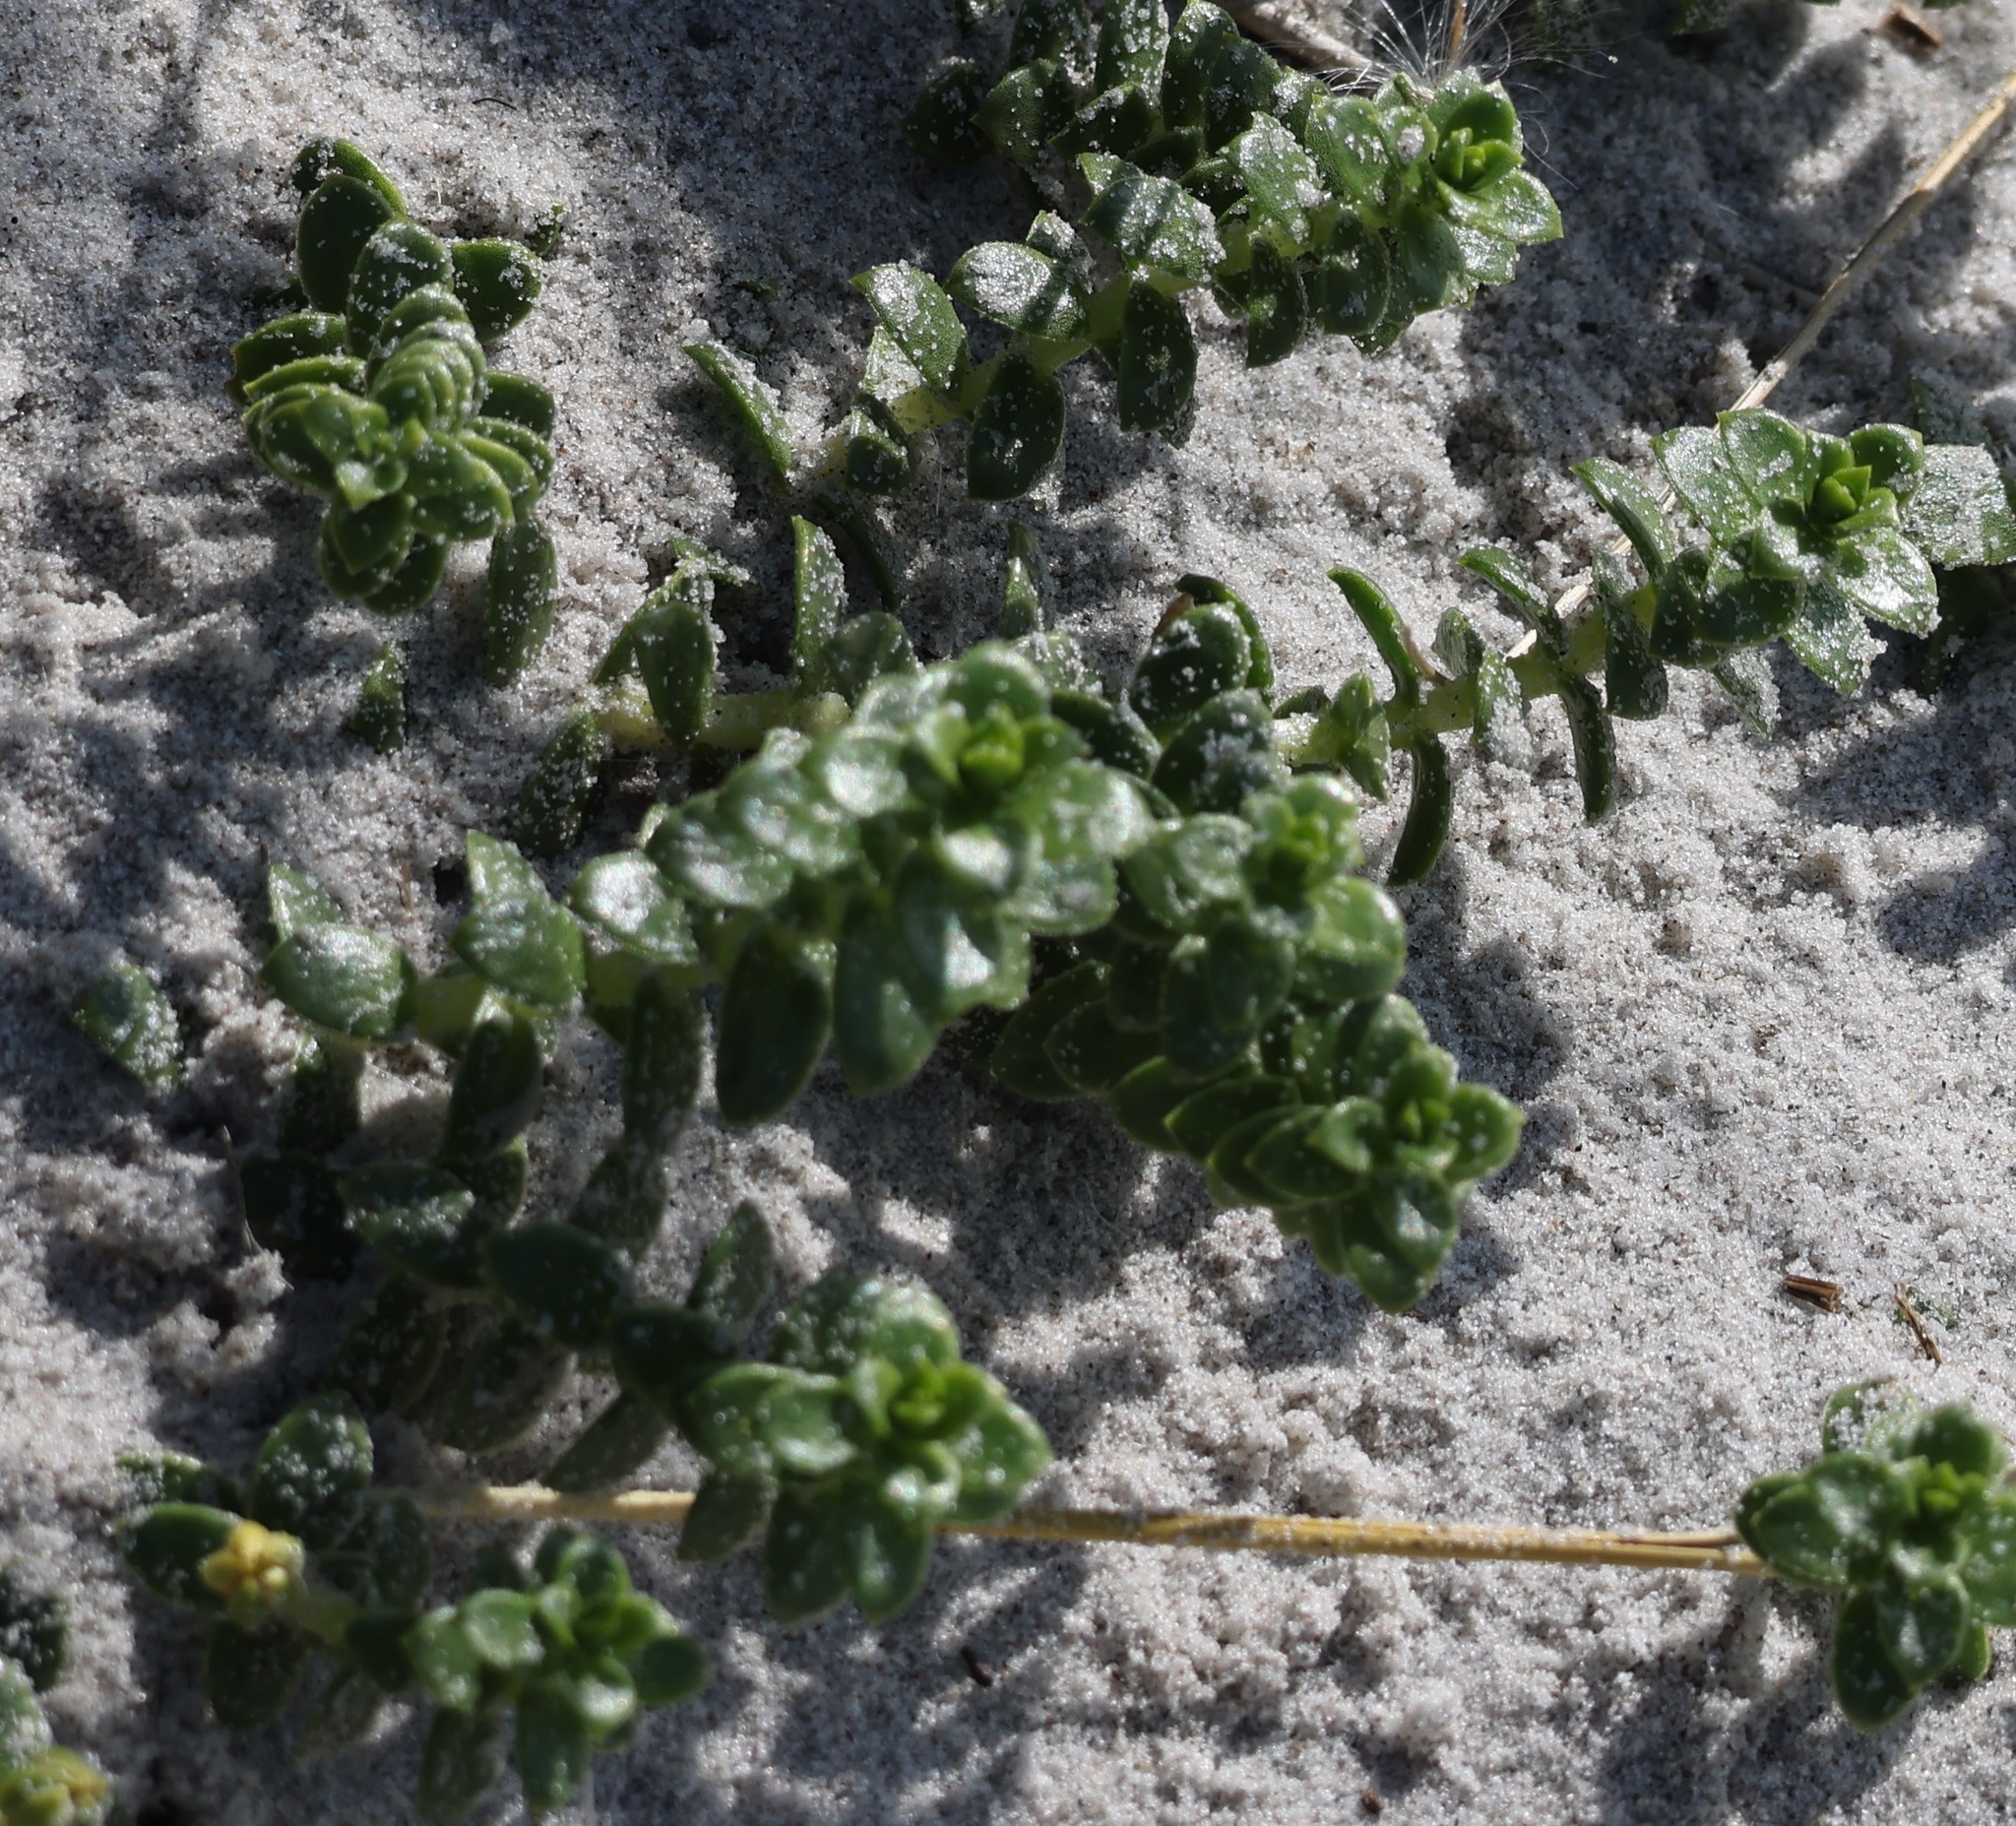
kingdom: Plantae
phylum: Tracheophyta
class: Magnoliopsida
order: Caryophyllales
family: Caryophyllaceae
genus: Honckenya
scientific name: Honckenya peploides
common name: Sea sandwort
